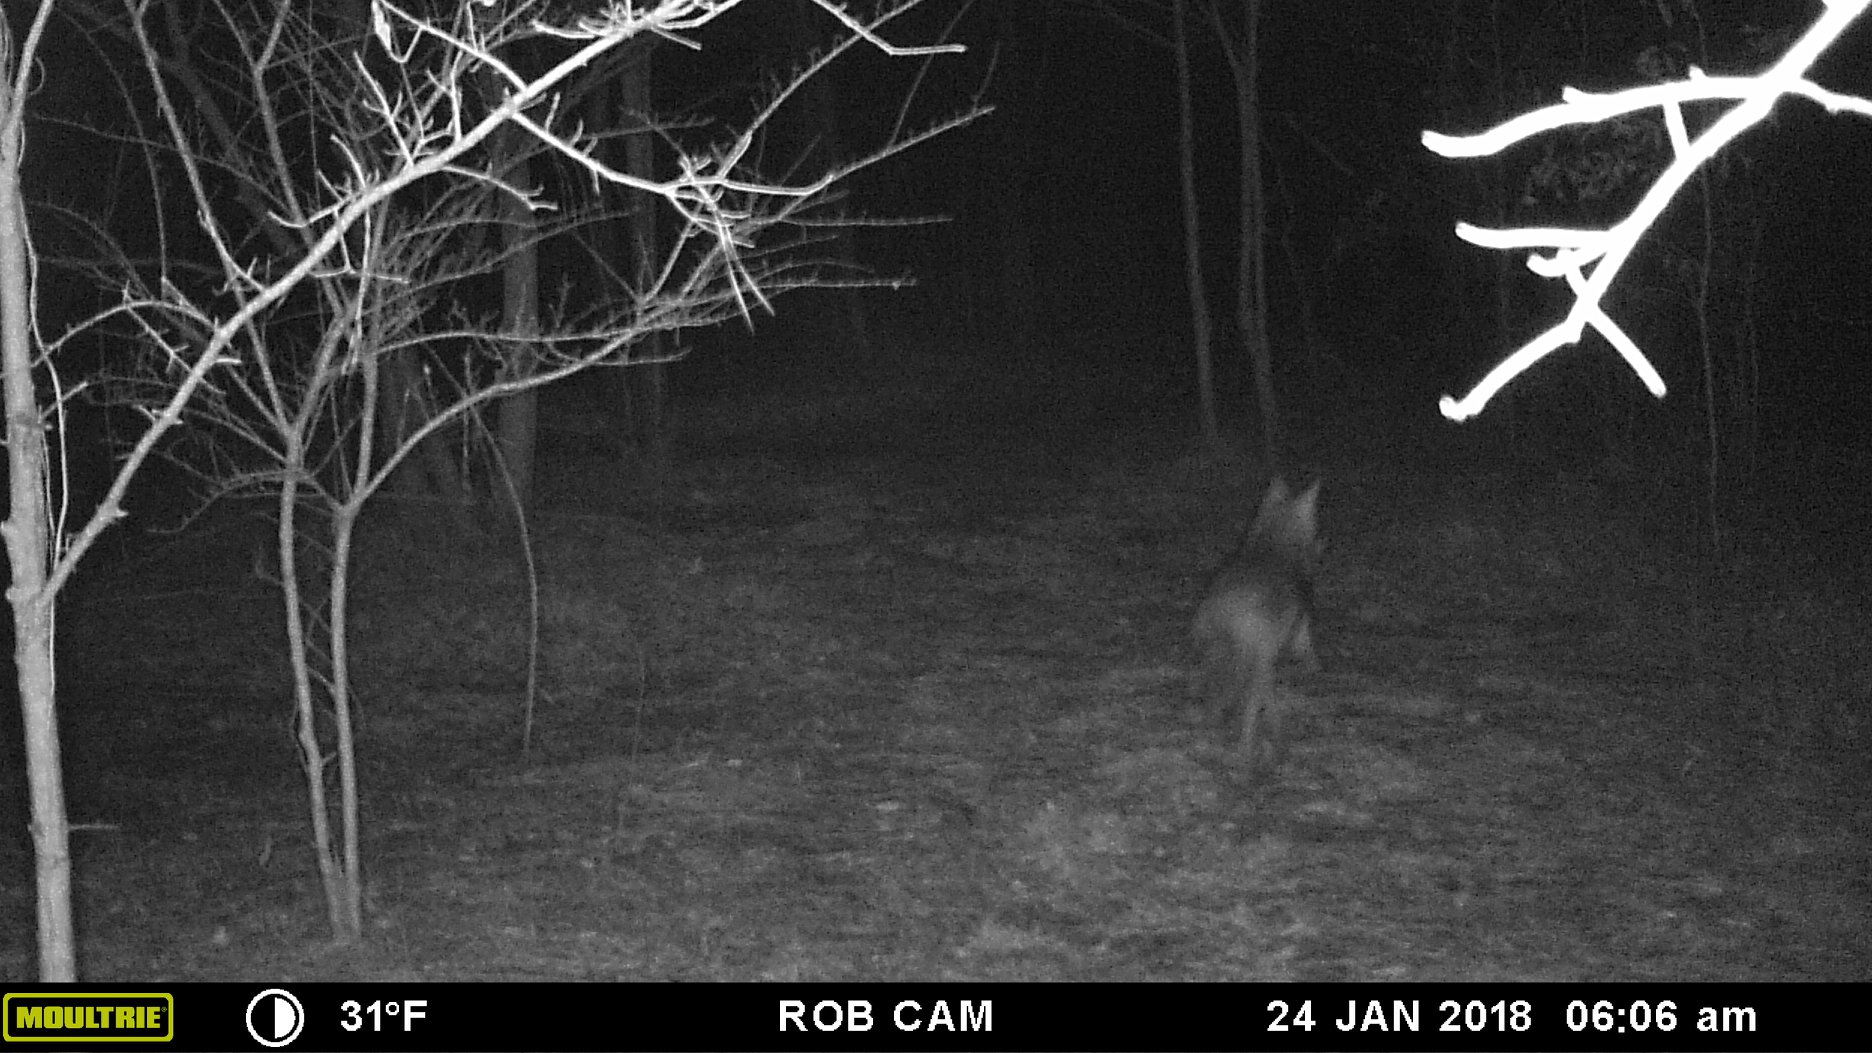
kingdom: Animalia
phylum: Chordata
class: Mammalia
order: Carnivora
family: Canidae
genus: Canis
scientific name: Canis latrans
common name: Coyote
